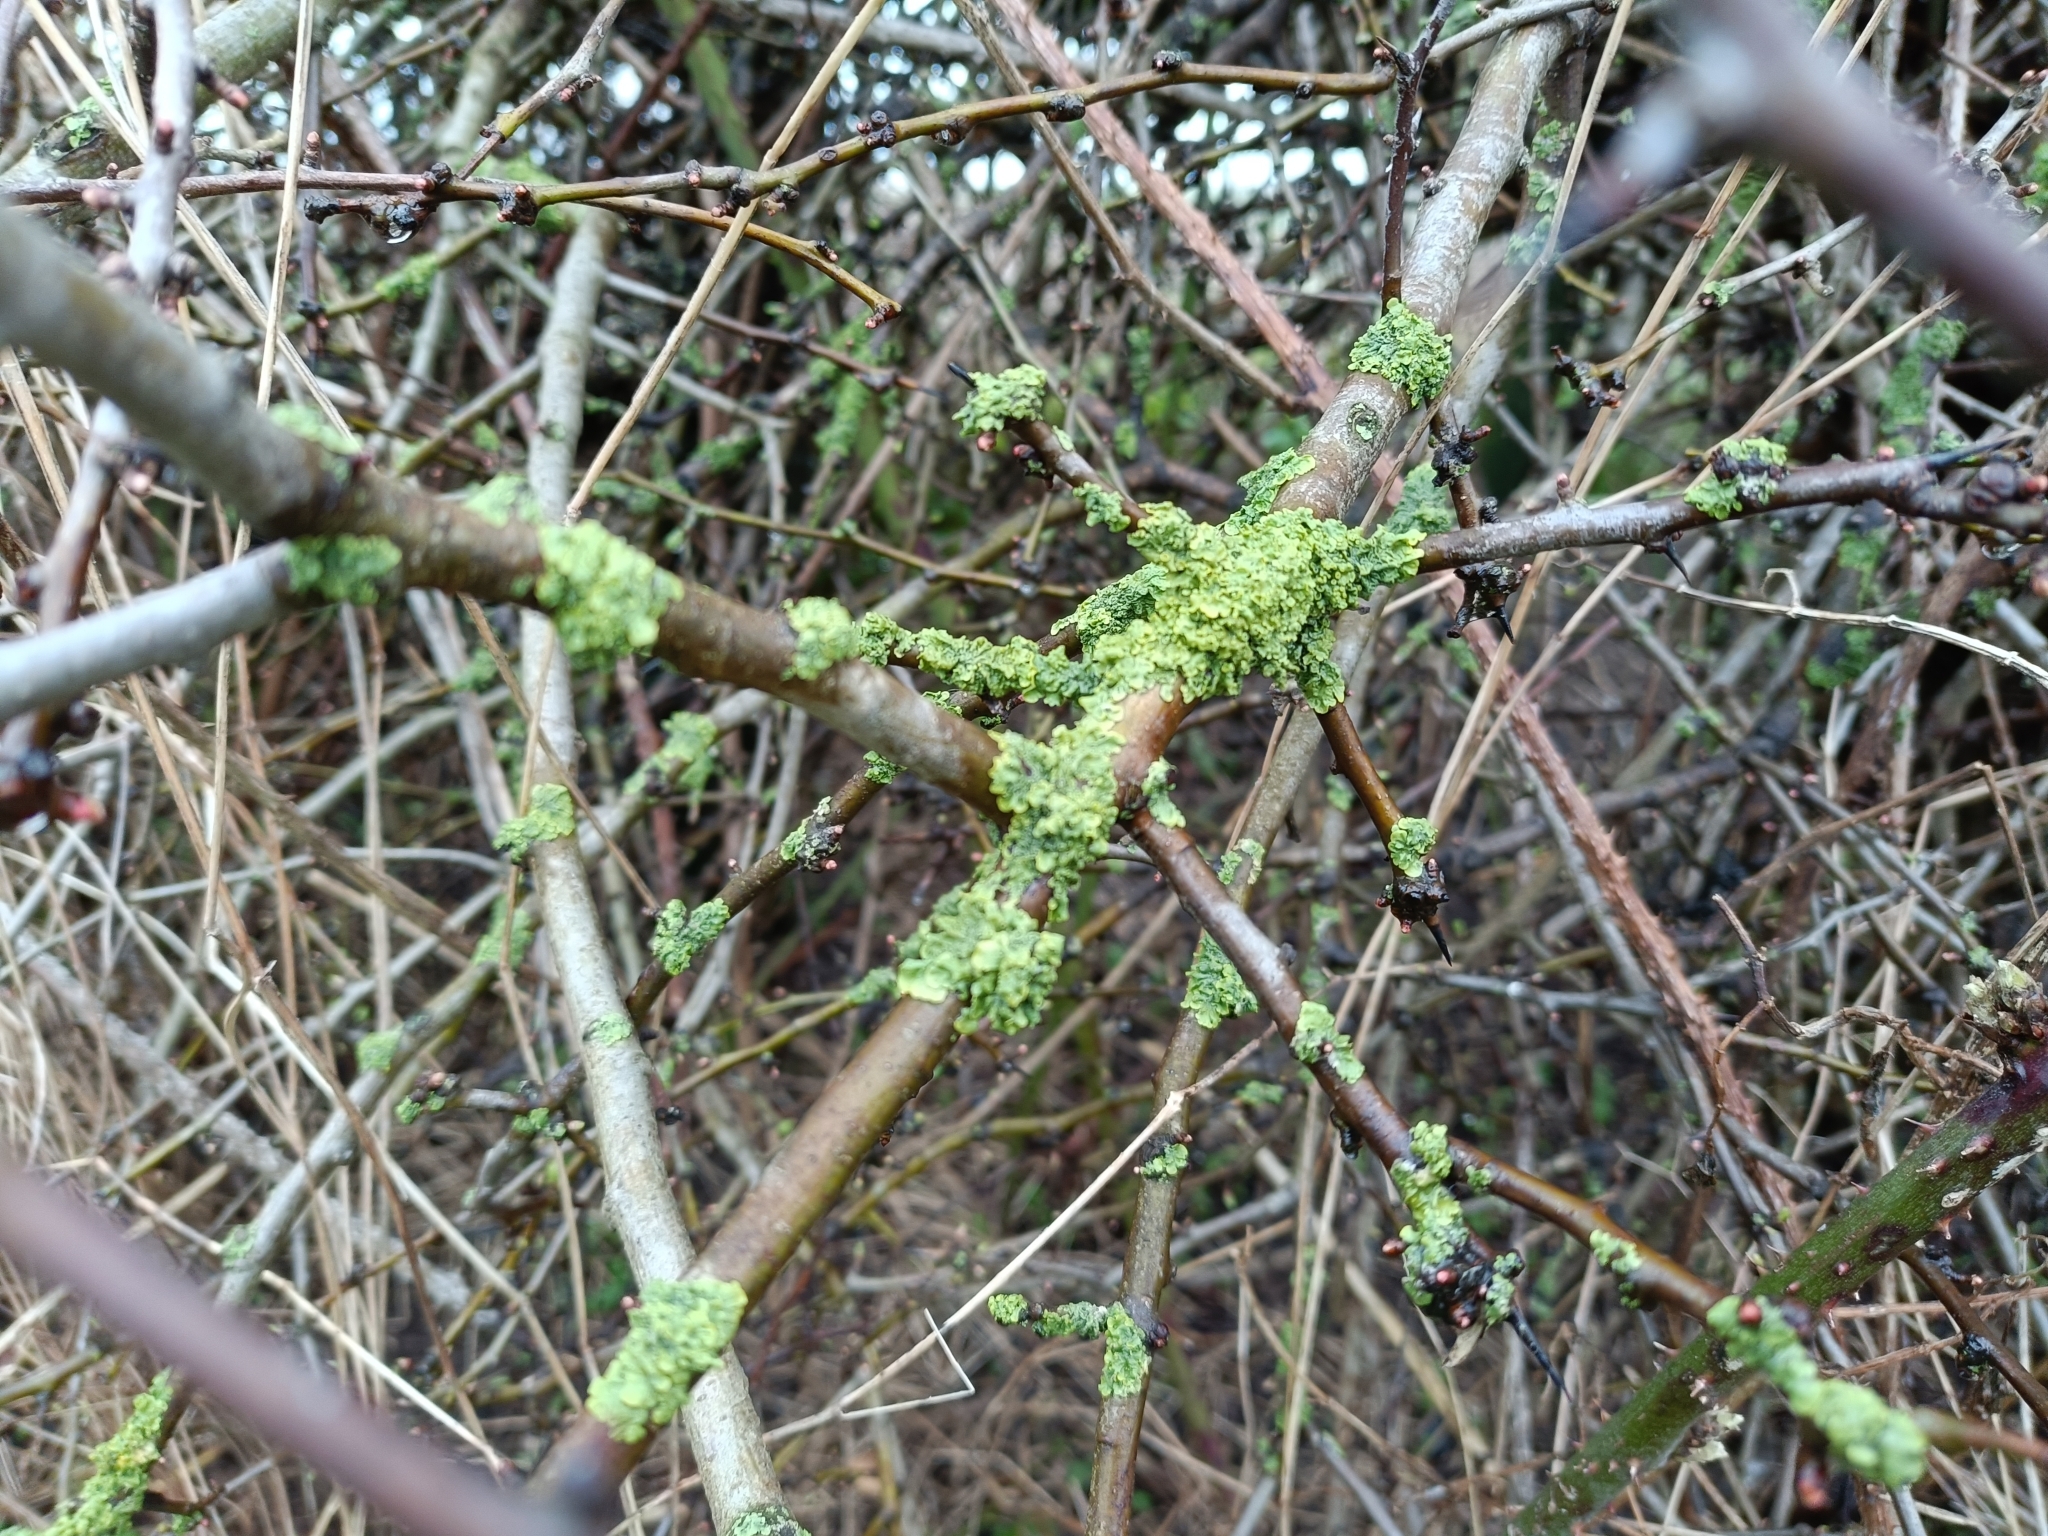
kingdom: Fungi
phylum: Ascomycota
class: Lecanoromycetes
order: Teloschistales
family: Teloschistaceae
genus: Xanthoria
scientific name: Xanthoria parietina
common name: Common orange lichen
